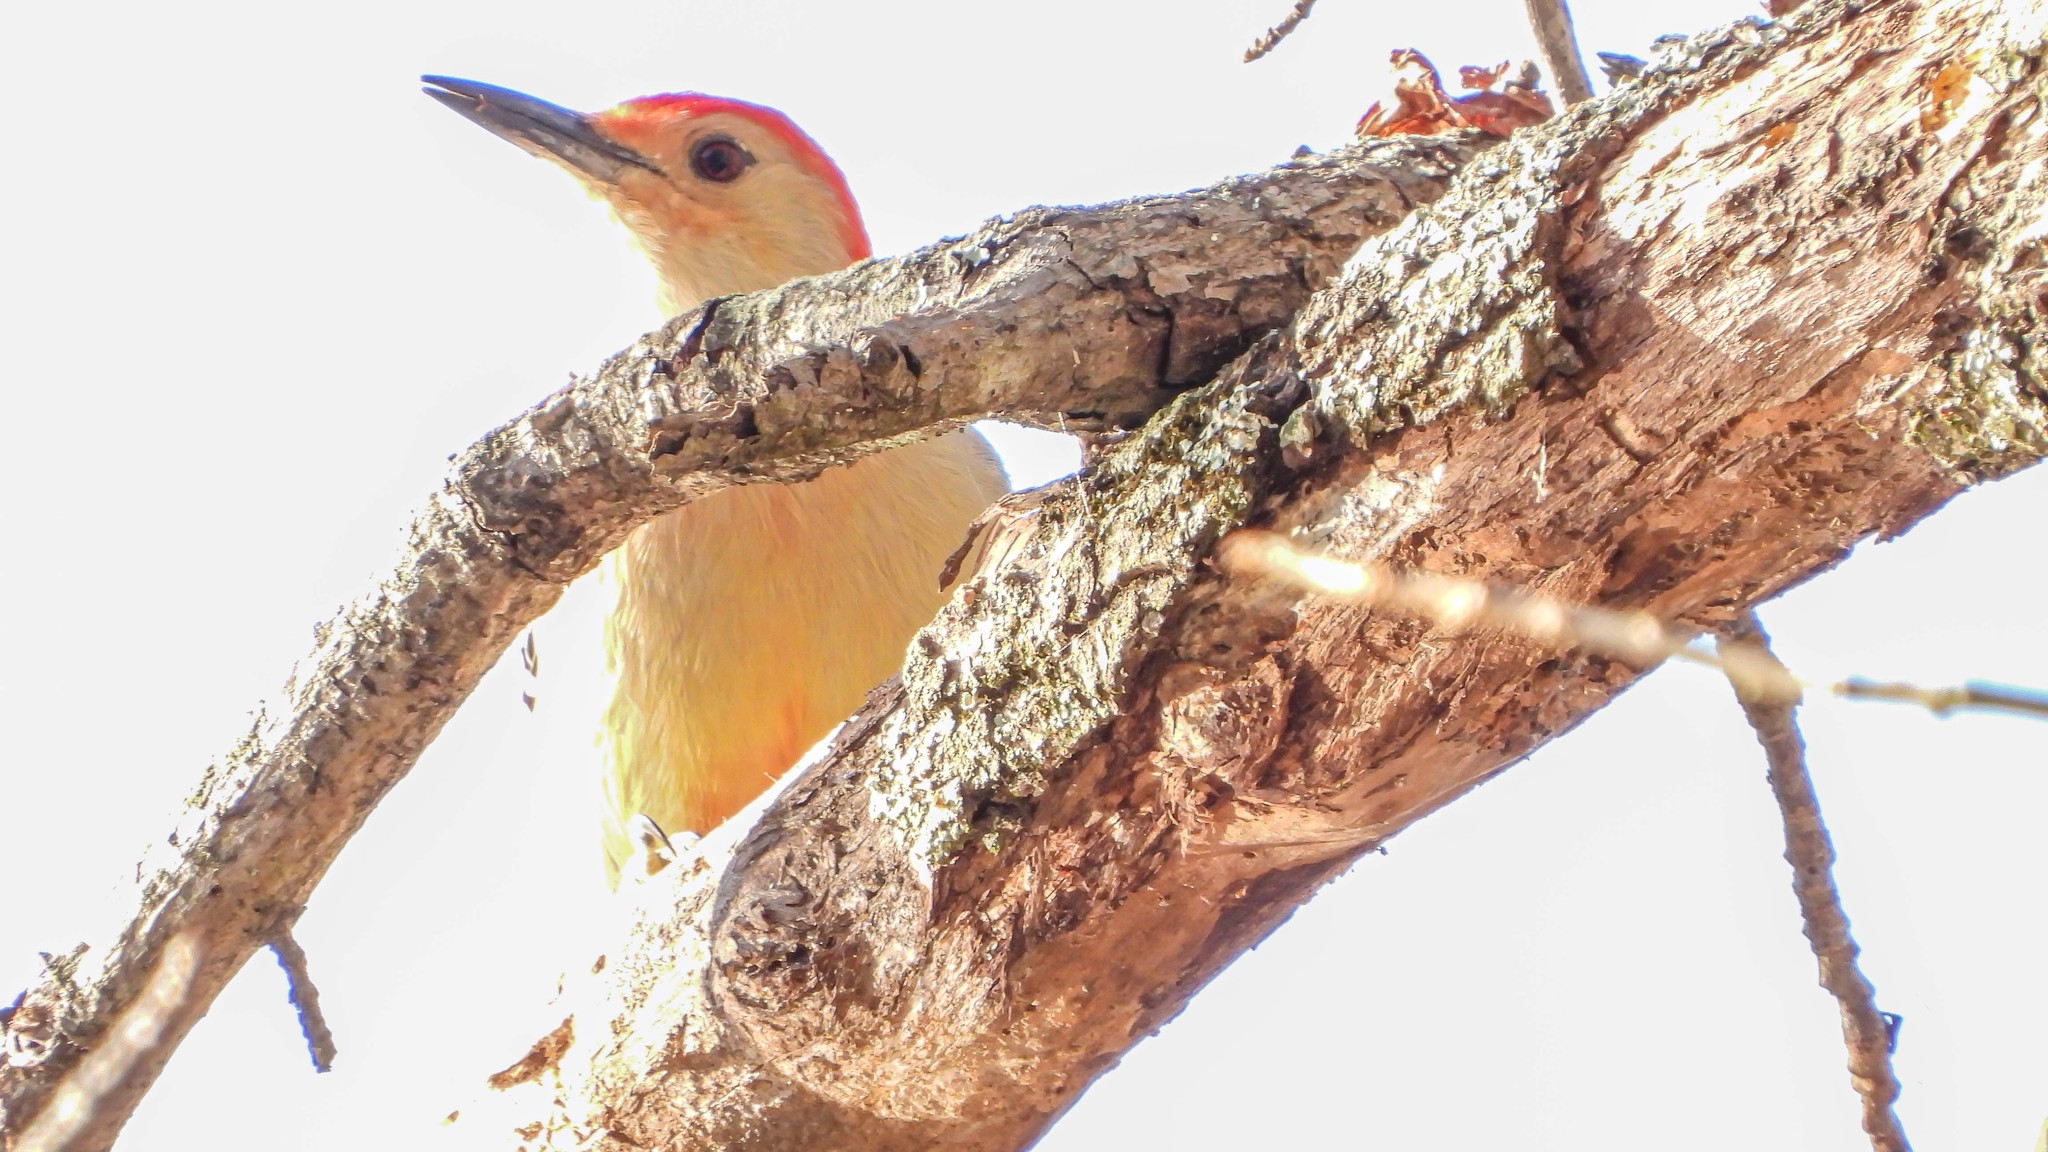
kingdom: Animalia
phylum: Chordata
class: Aves
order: Piciformes
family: Picidae
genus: Melanerpes
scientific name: Melanerpes carolinus
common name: Red-bellied woodpecker
